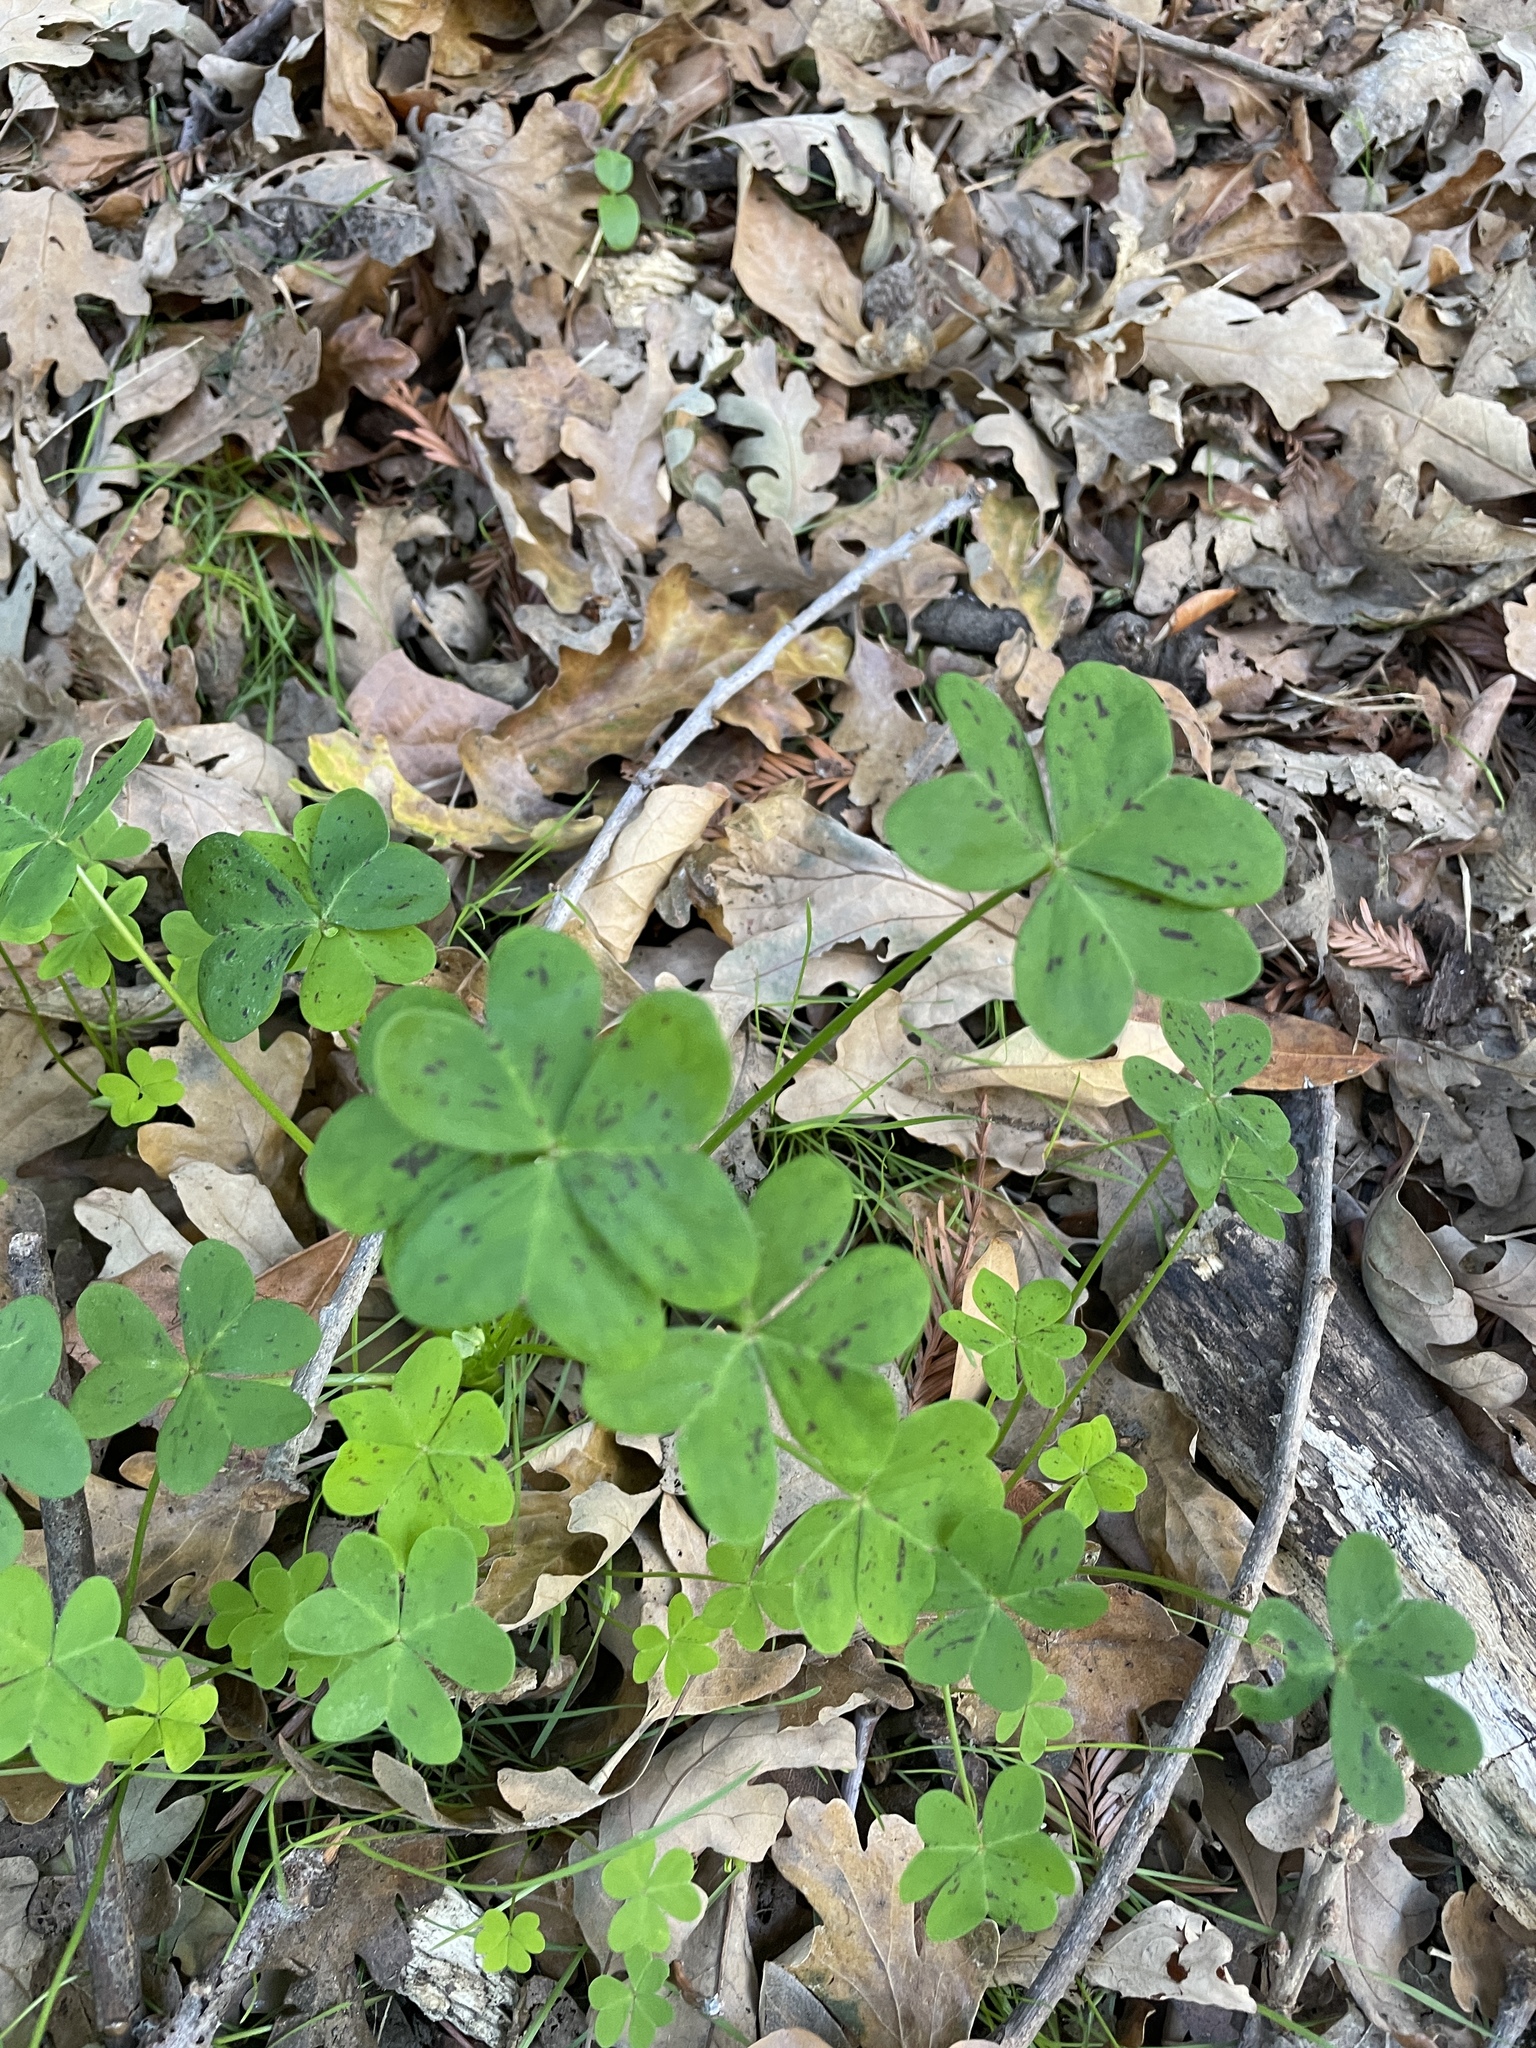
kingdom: Plantae
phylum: Tracheophyta
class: Magnoliopsida
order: Oxalidales
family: Oxalidaceae
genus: Oxalis
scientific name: Oxalis pes-caprae
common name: Bermuda-buttercup
